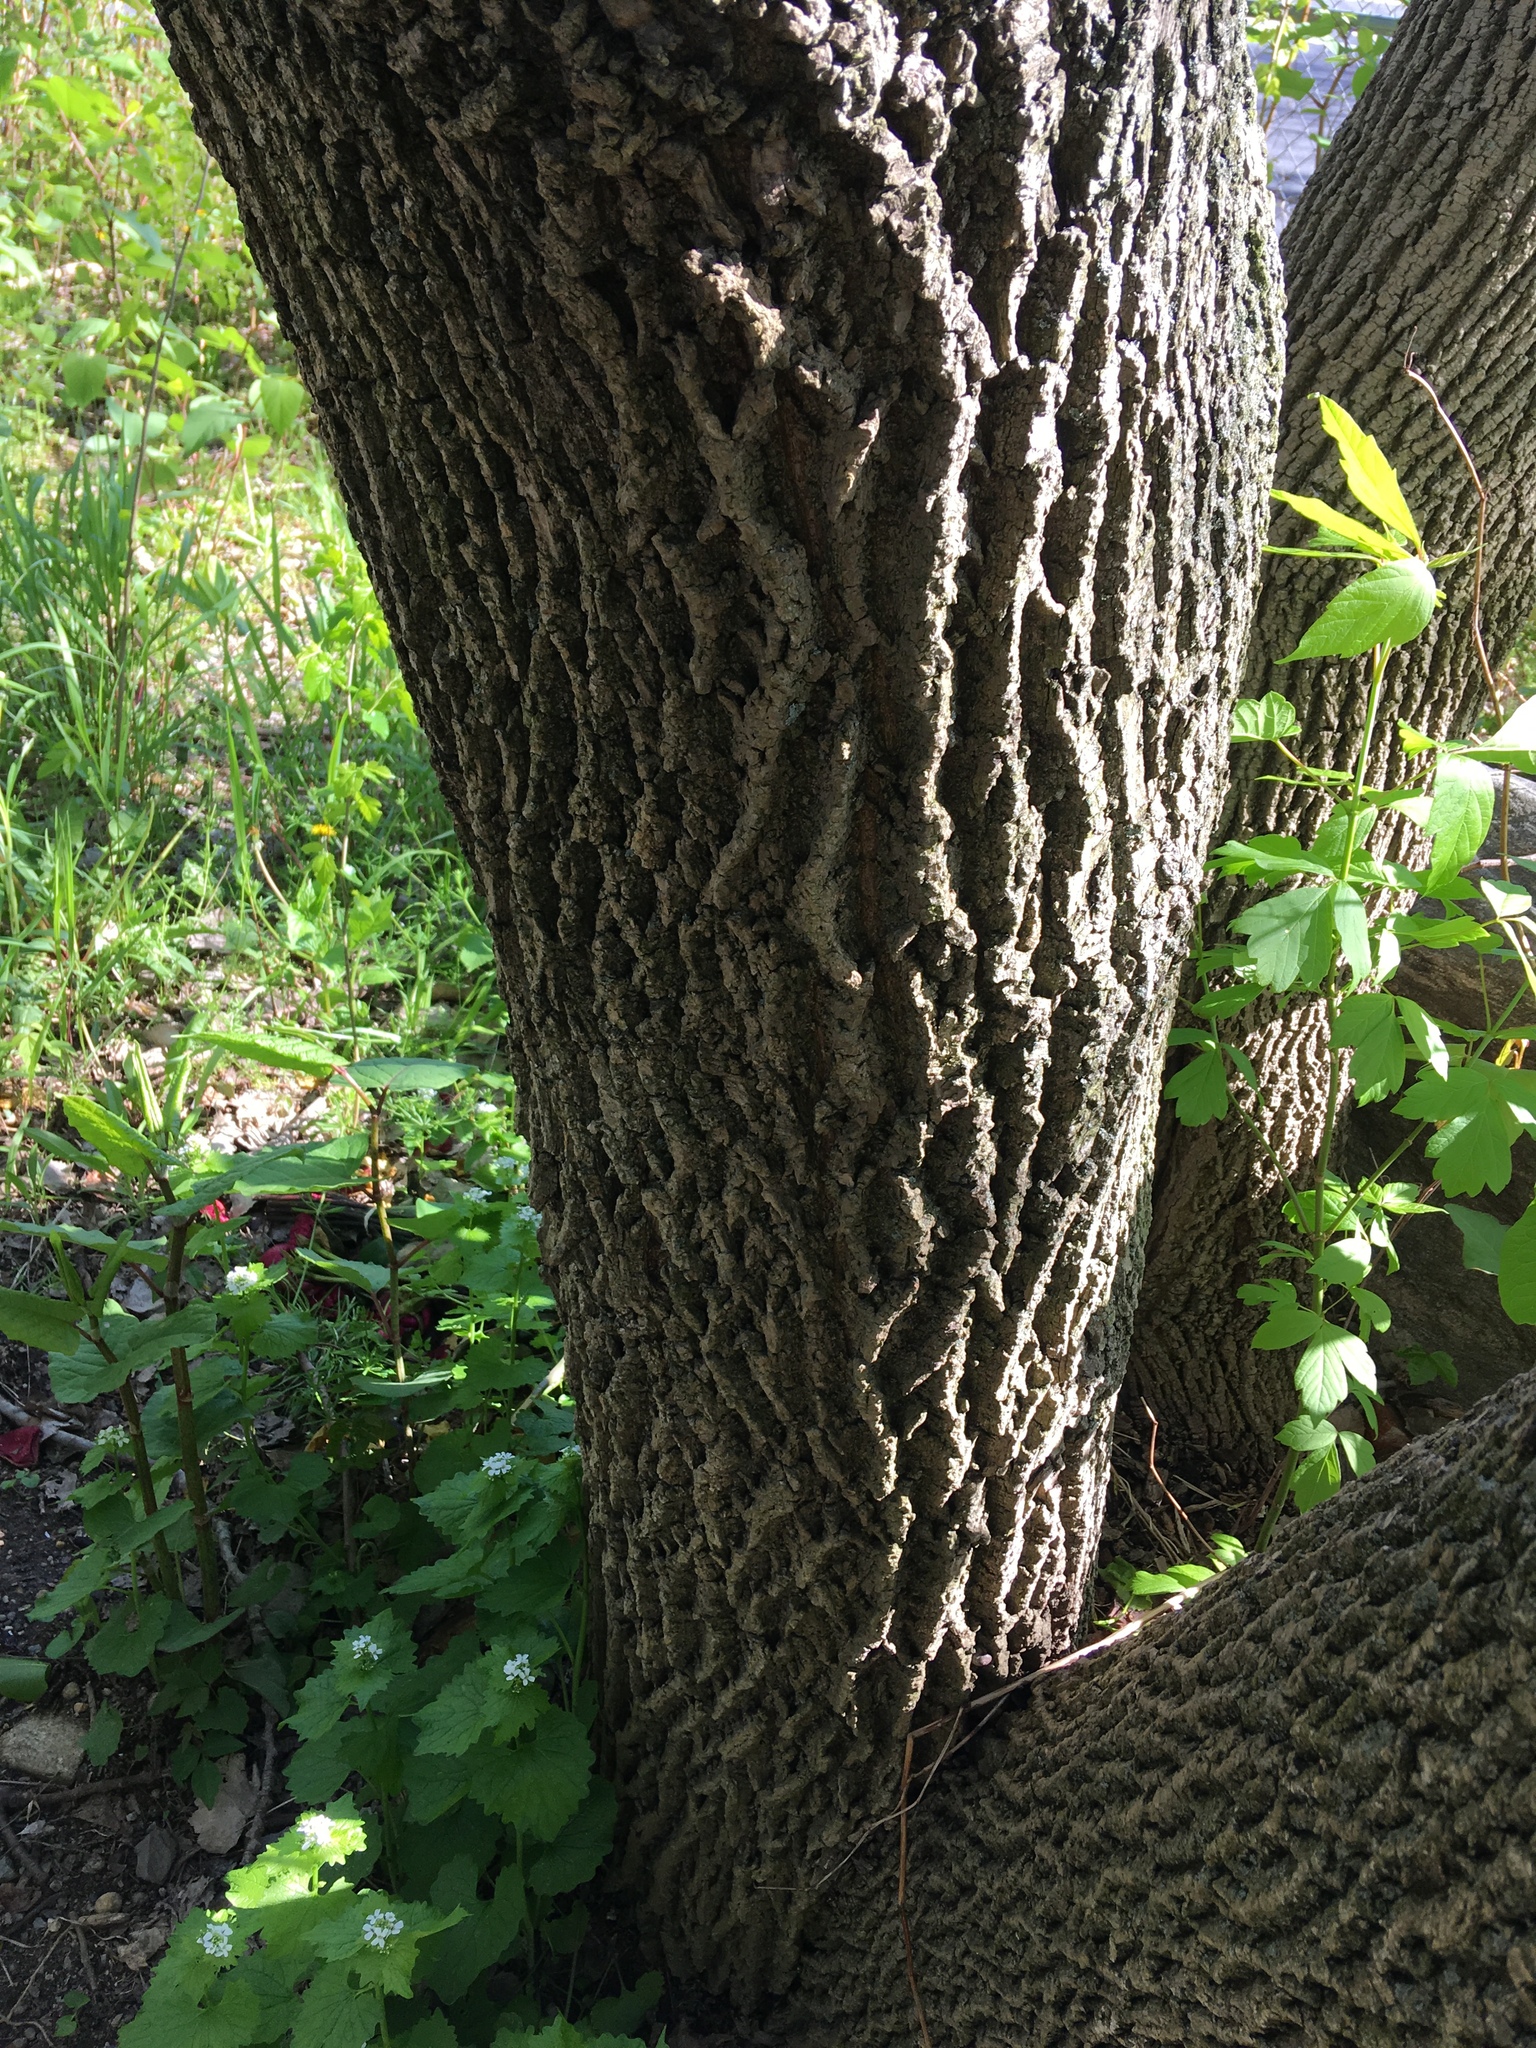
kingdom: Plantae
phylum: Tracheophyta
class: Magnoliopsida
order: Lamiales
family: Oleaceae
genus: Fraxinus
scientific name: Fraxinus americana
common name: White ash
